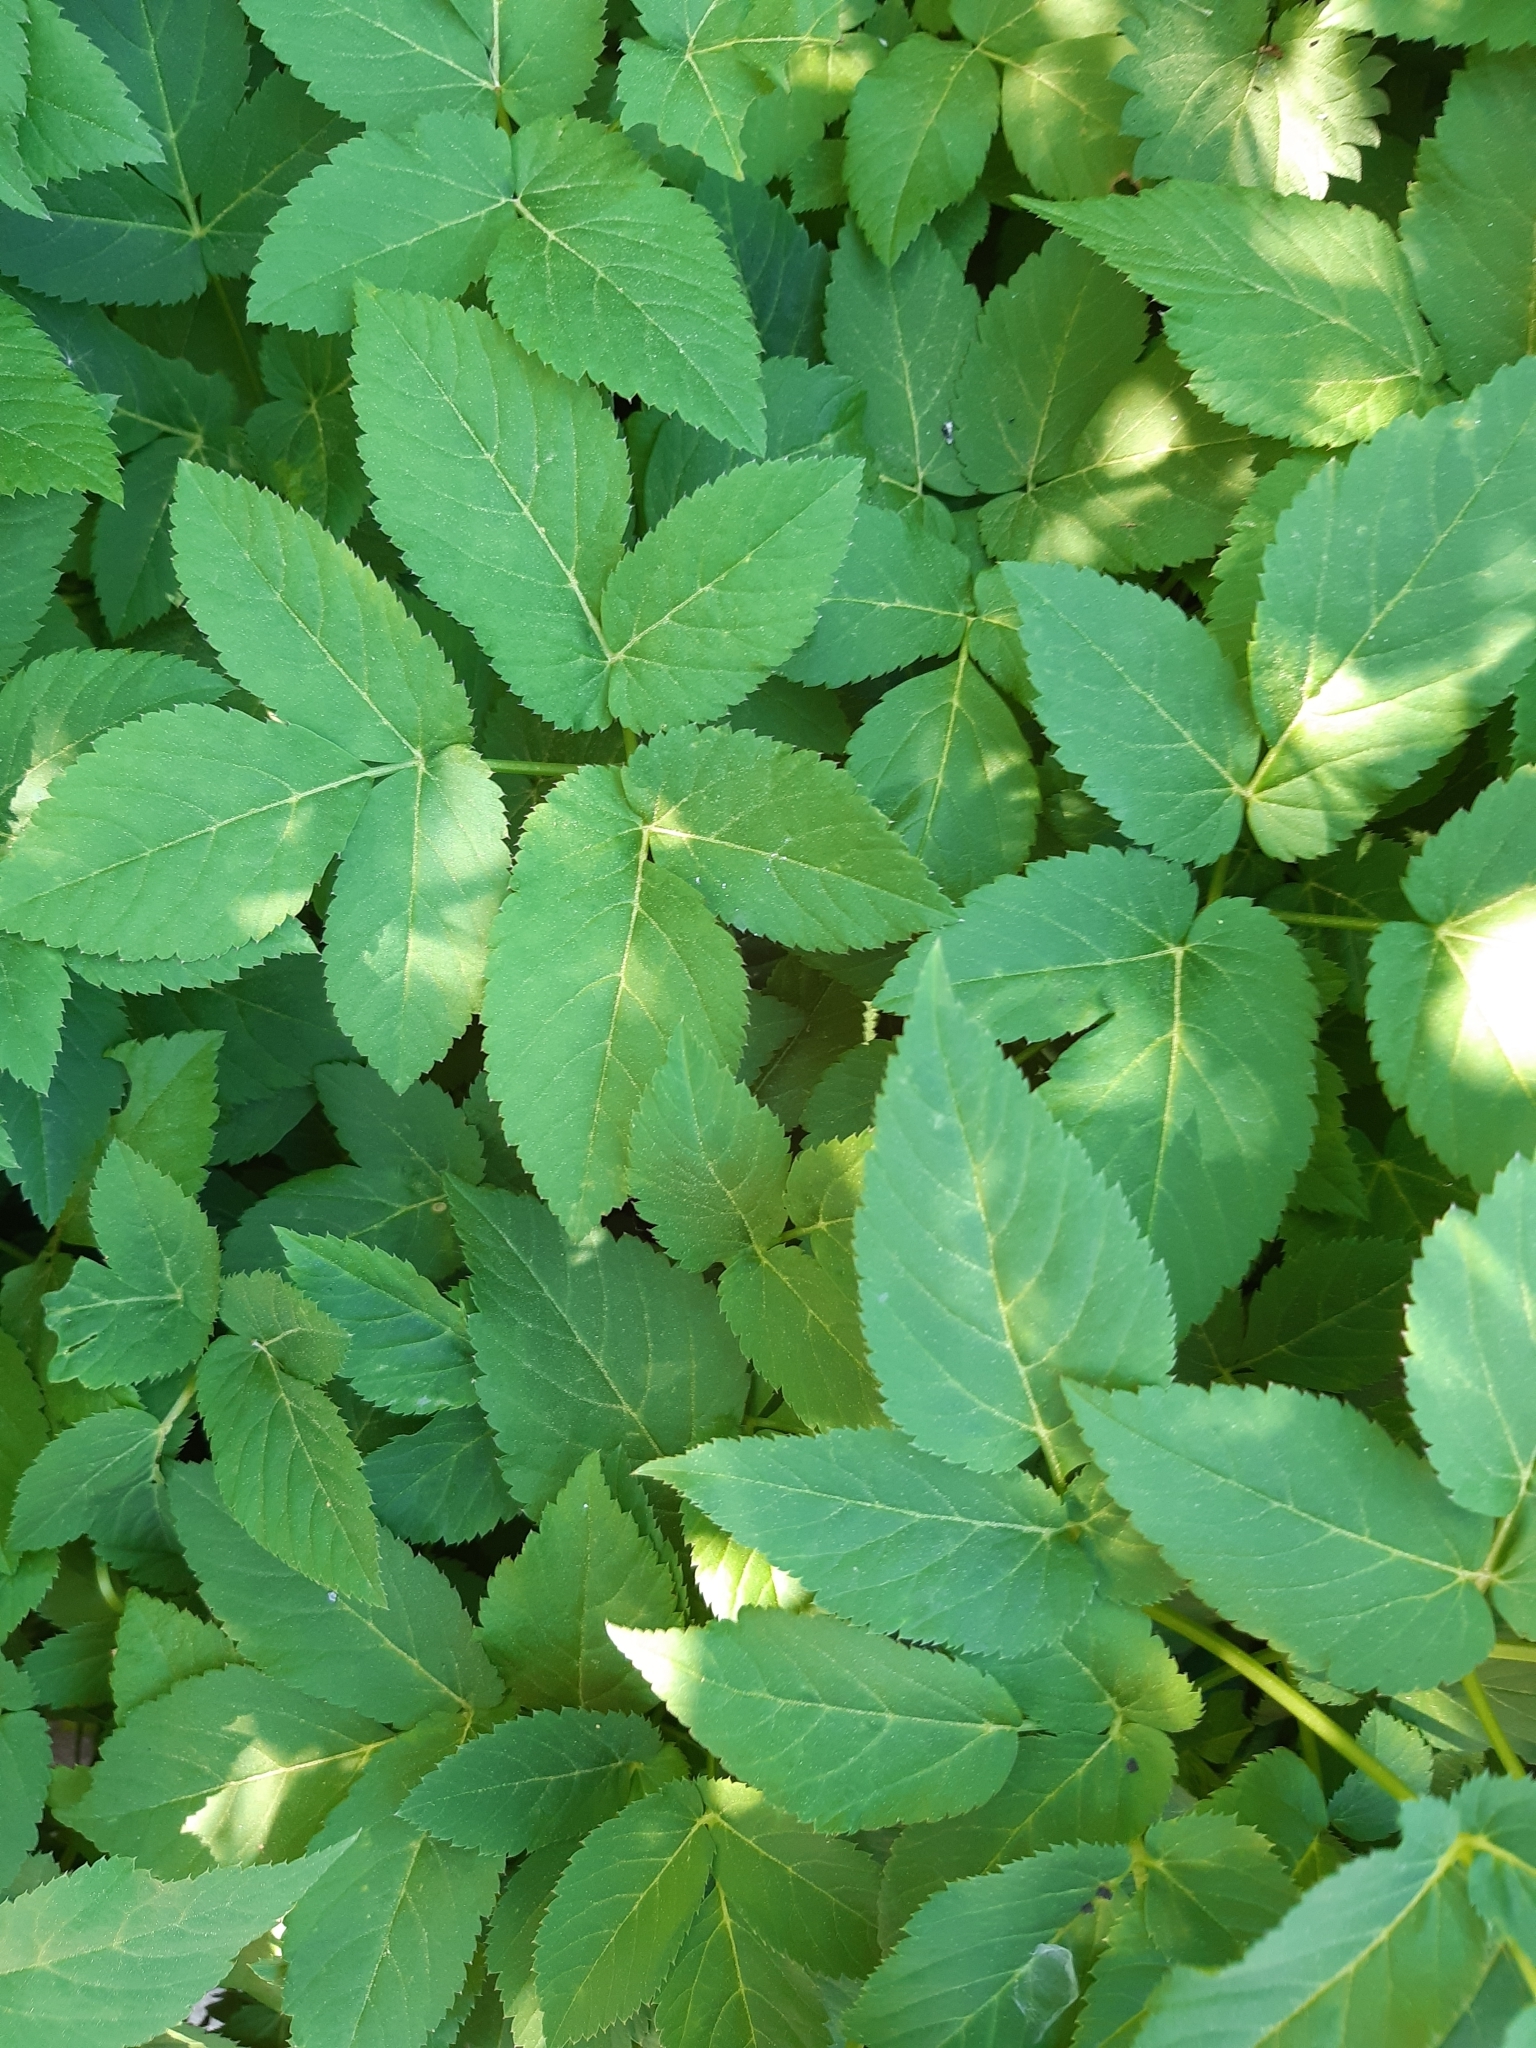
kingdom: Plantae
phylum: Tracheophyta
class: Magnoliopsida
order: Apiales
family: Apiaceae
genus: Aegopodium
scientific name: Aegopodium podagraria
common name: Ground-elder
